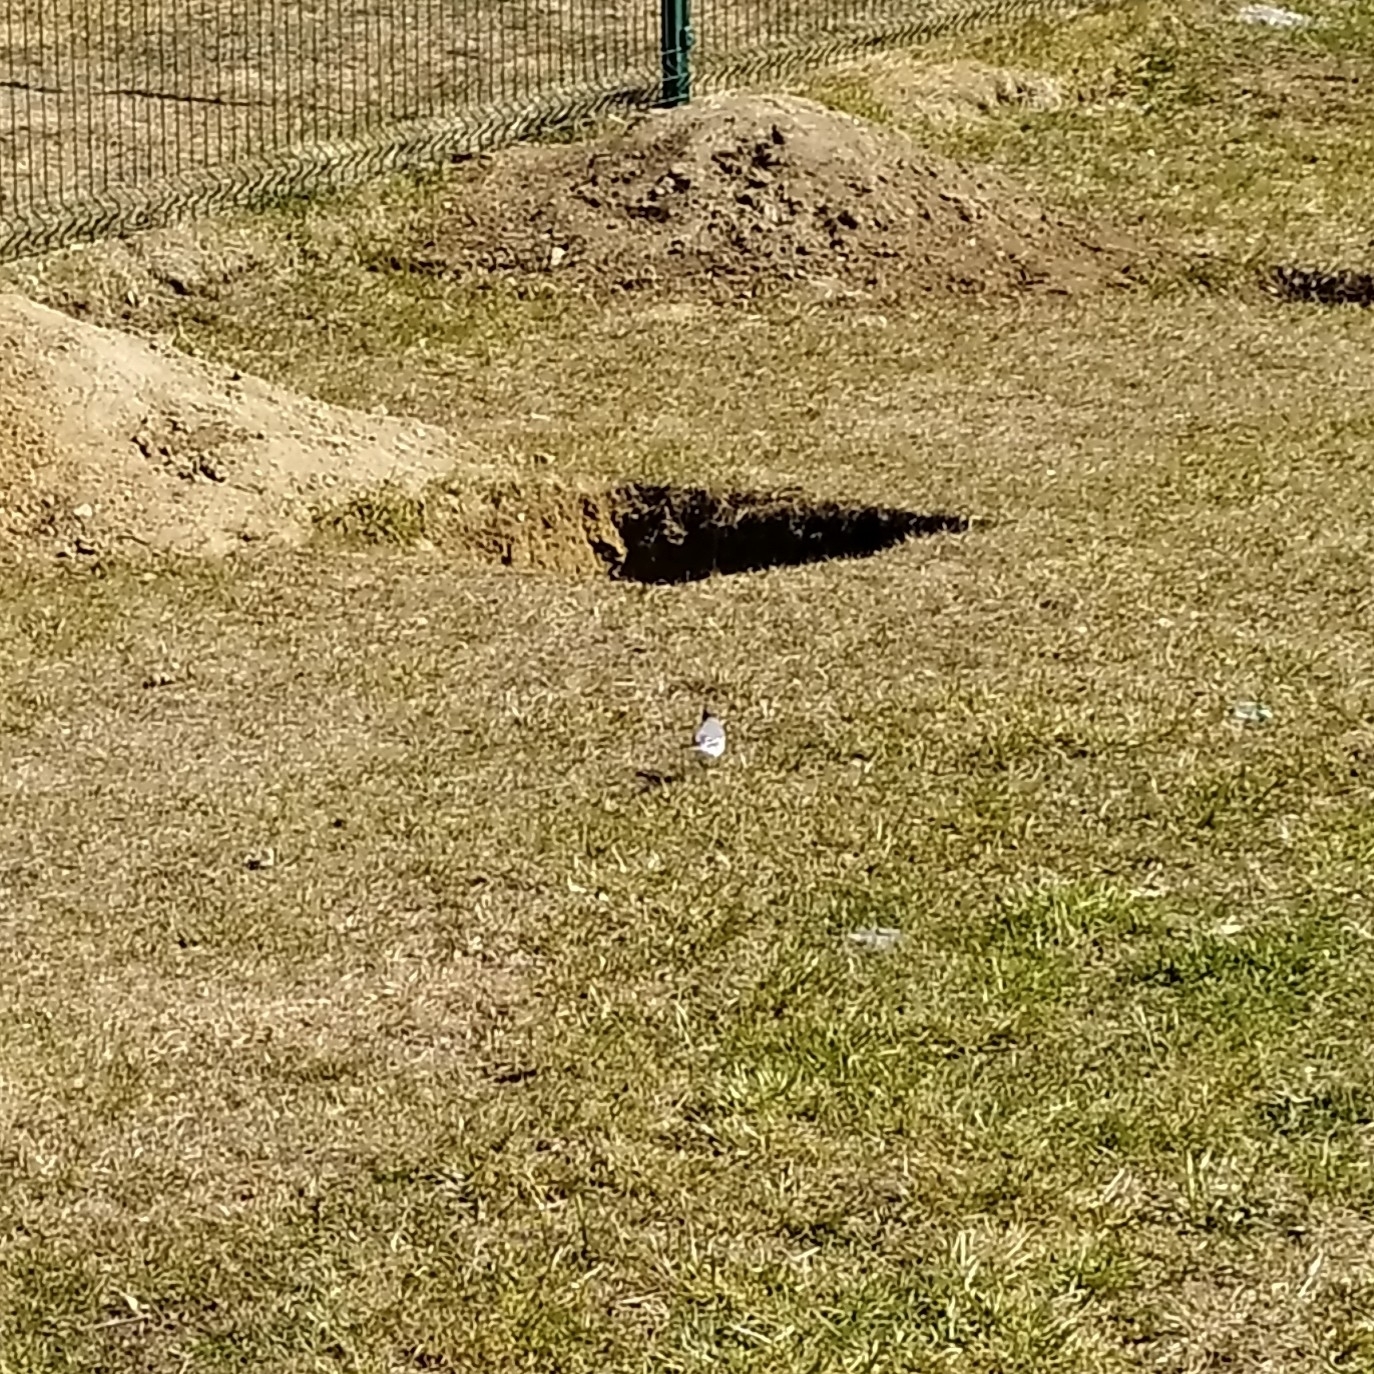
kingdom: Animalia
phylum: Chordata
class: Aves
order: Passeriformes
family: Motacillidae
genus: Motacilla
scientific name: Motacilla alba
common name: White wagtail
